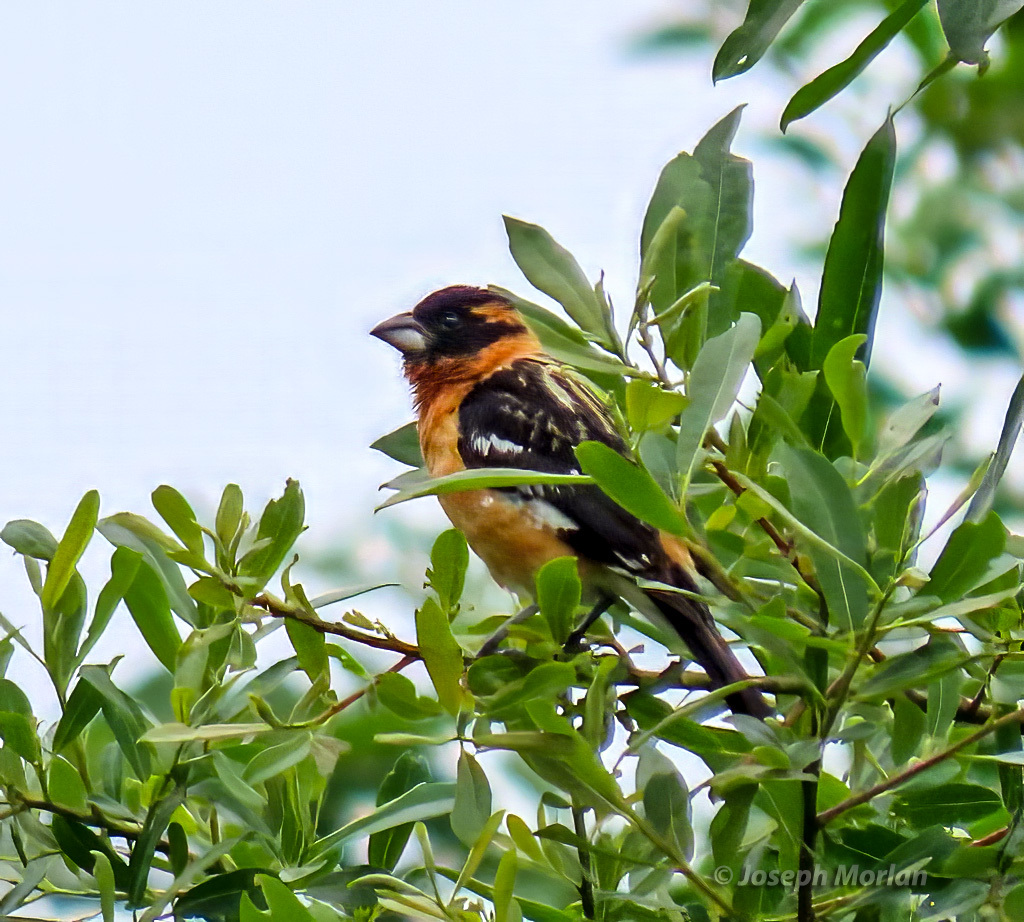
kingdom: Animalia
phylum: Chordata
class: Aves
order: Passeriformes
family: Cardinalidae
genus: Pheucticus
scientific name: Pheucticus melanocephalus
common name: Black-headed grosbeak
